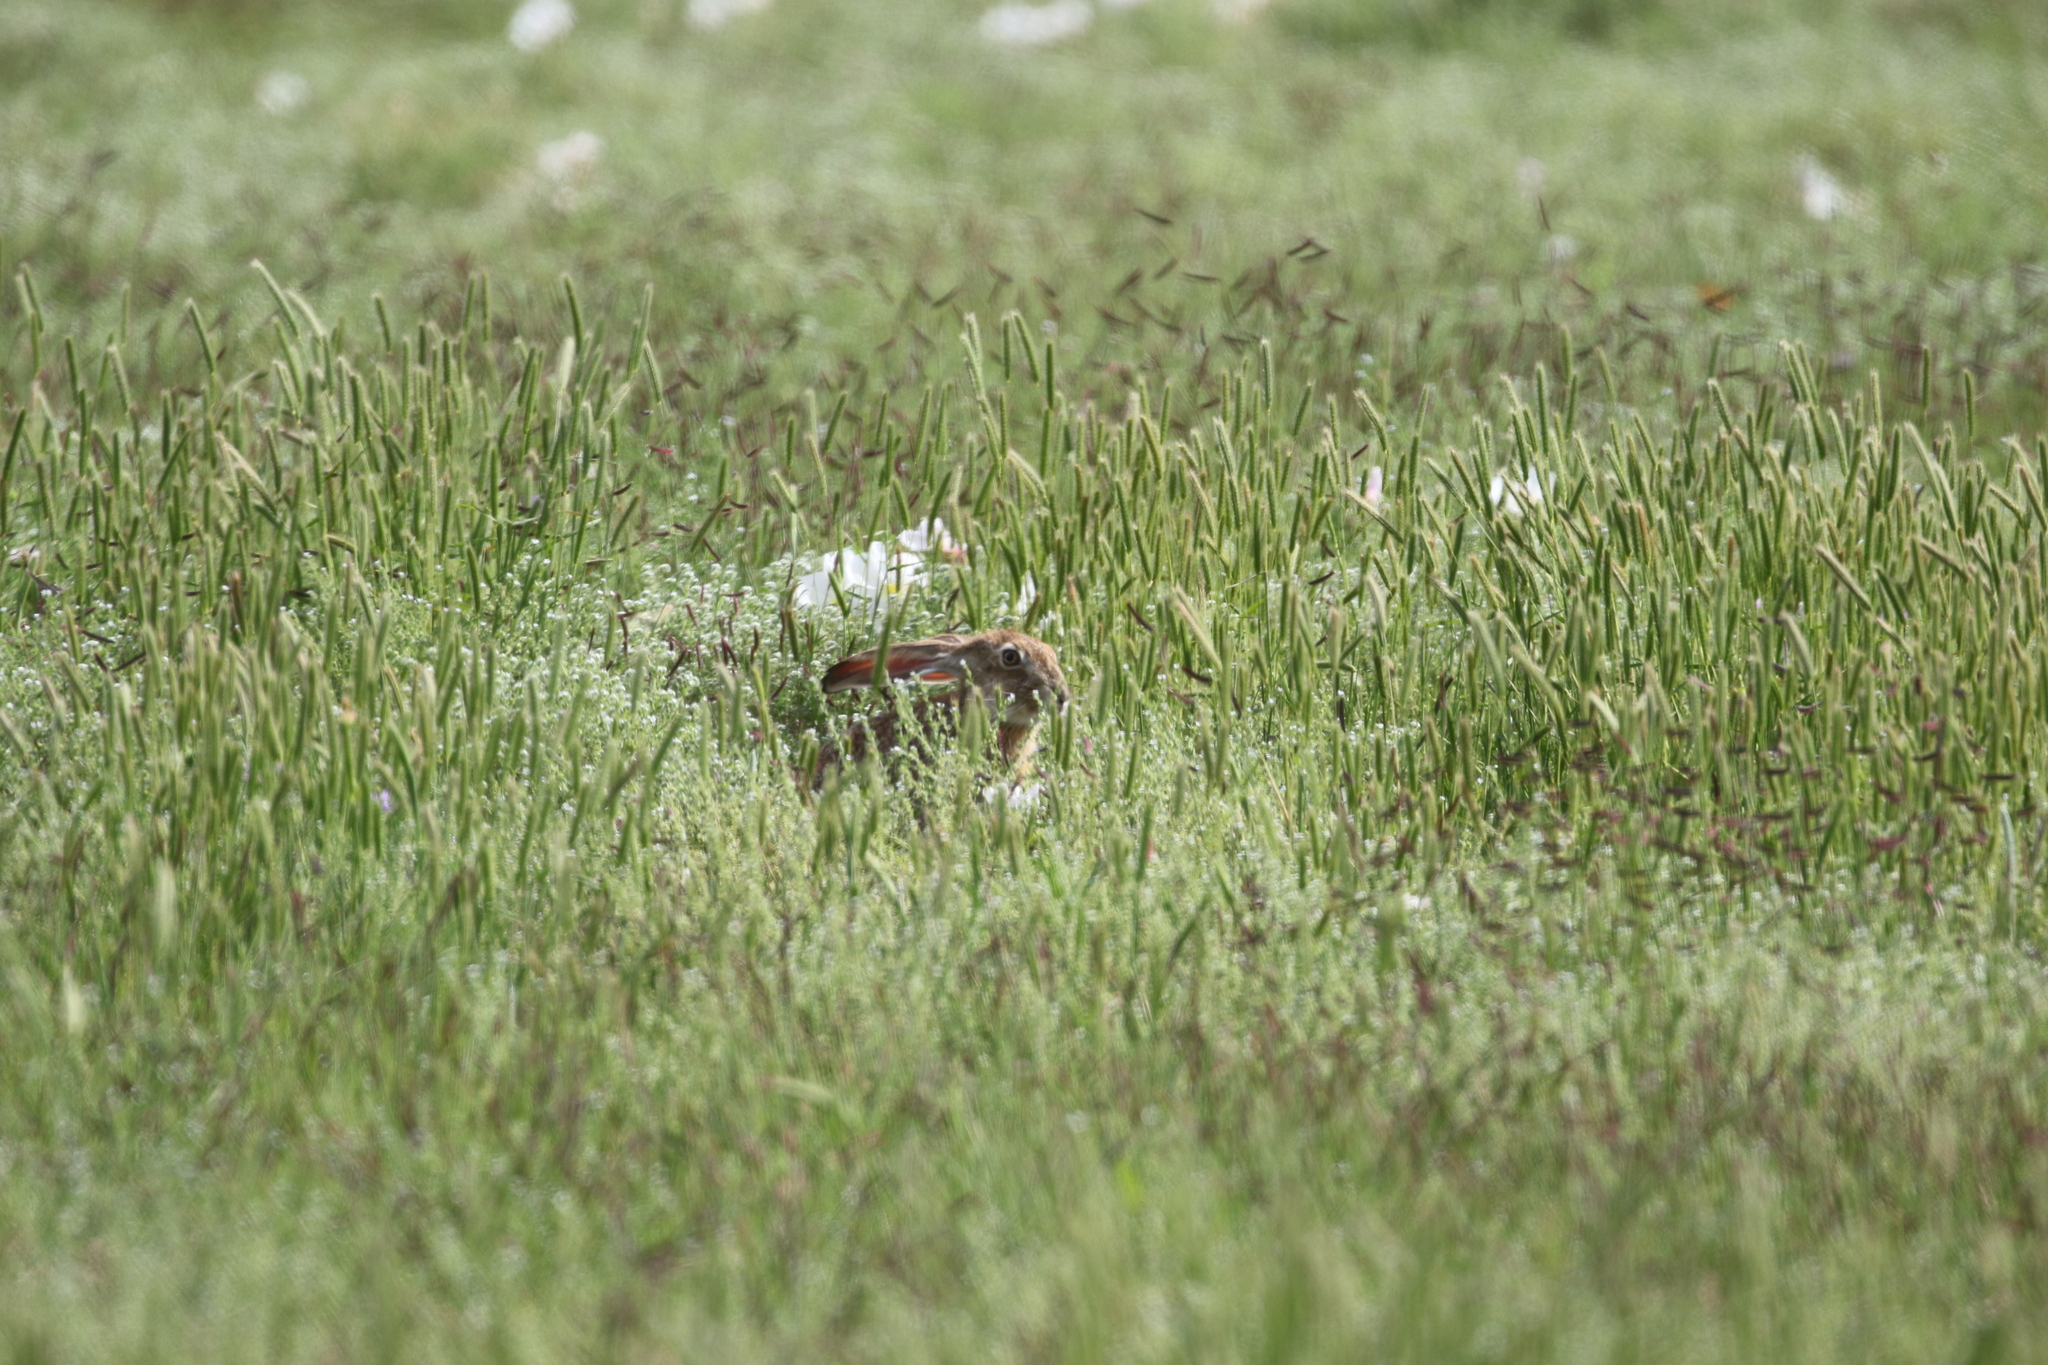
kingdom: Animalia
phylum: Chordata
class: Mammalia
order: Lagomorpha
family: Leporidae
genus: Lepus
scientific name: Lepus californicus
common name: Black-tailed jackrabbit
